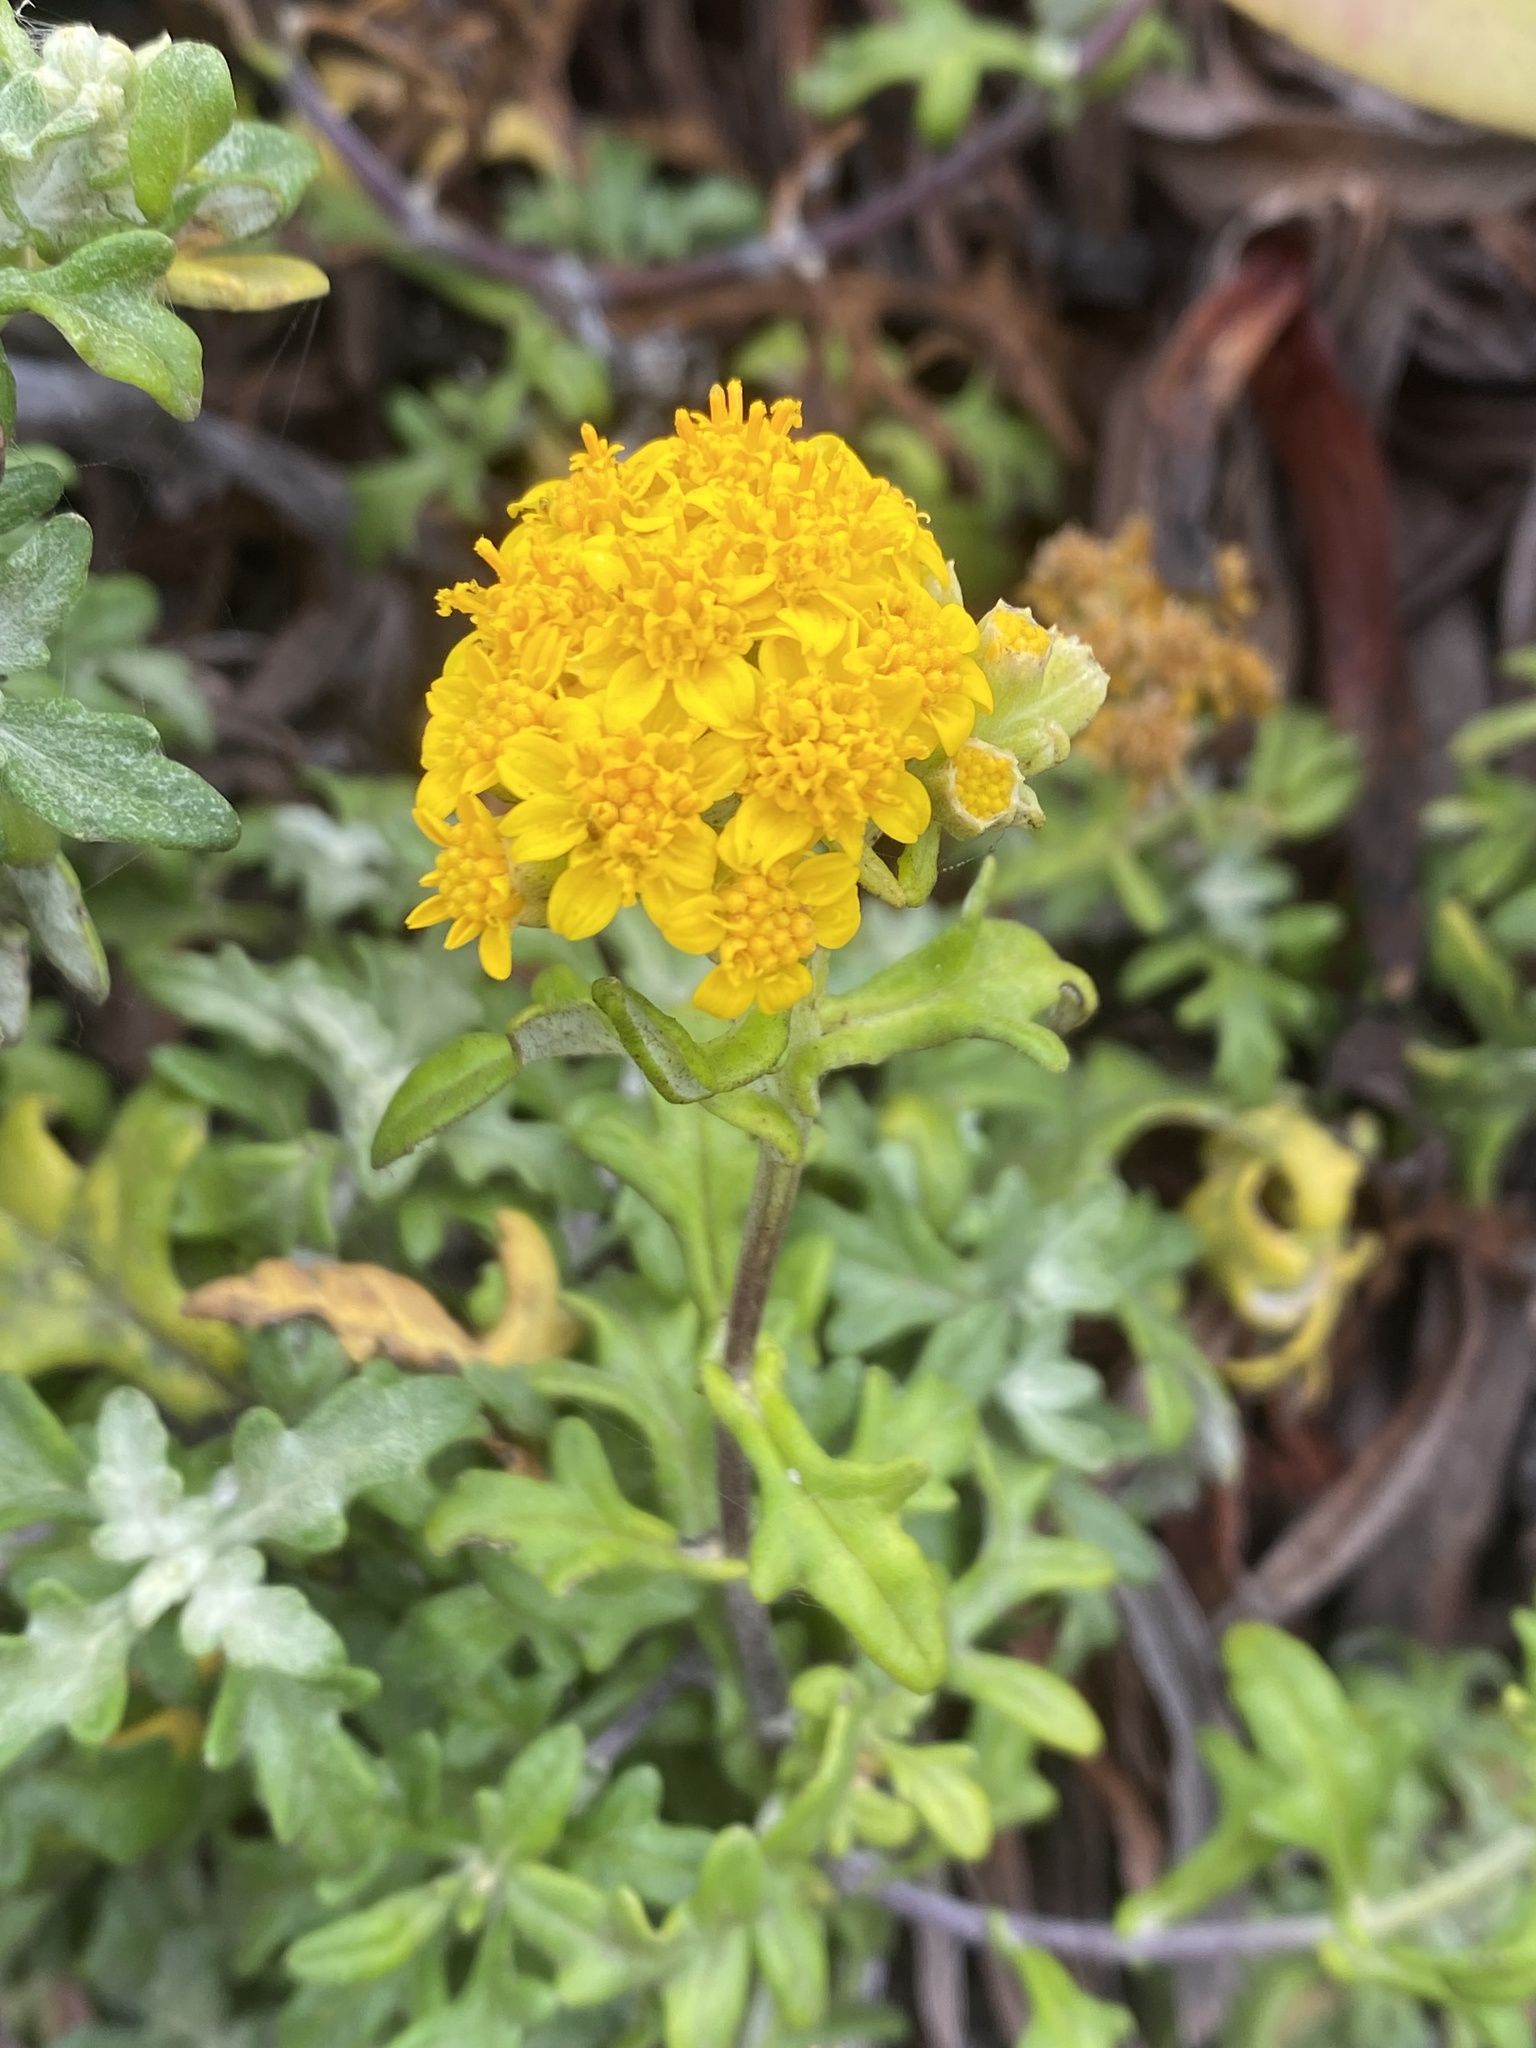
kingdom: Plantae
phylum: Tracheophyta
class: Magnoliopsida
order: Asterales
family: Asteraceae
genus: Eriophyllum
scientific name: Eriophyllum staechadifolium
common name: Lizardtail
